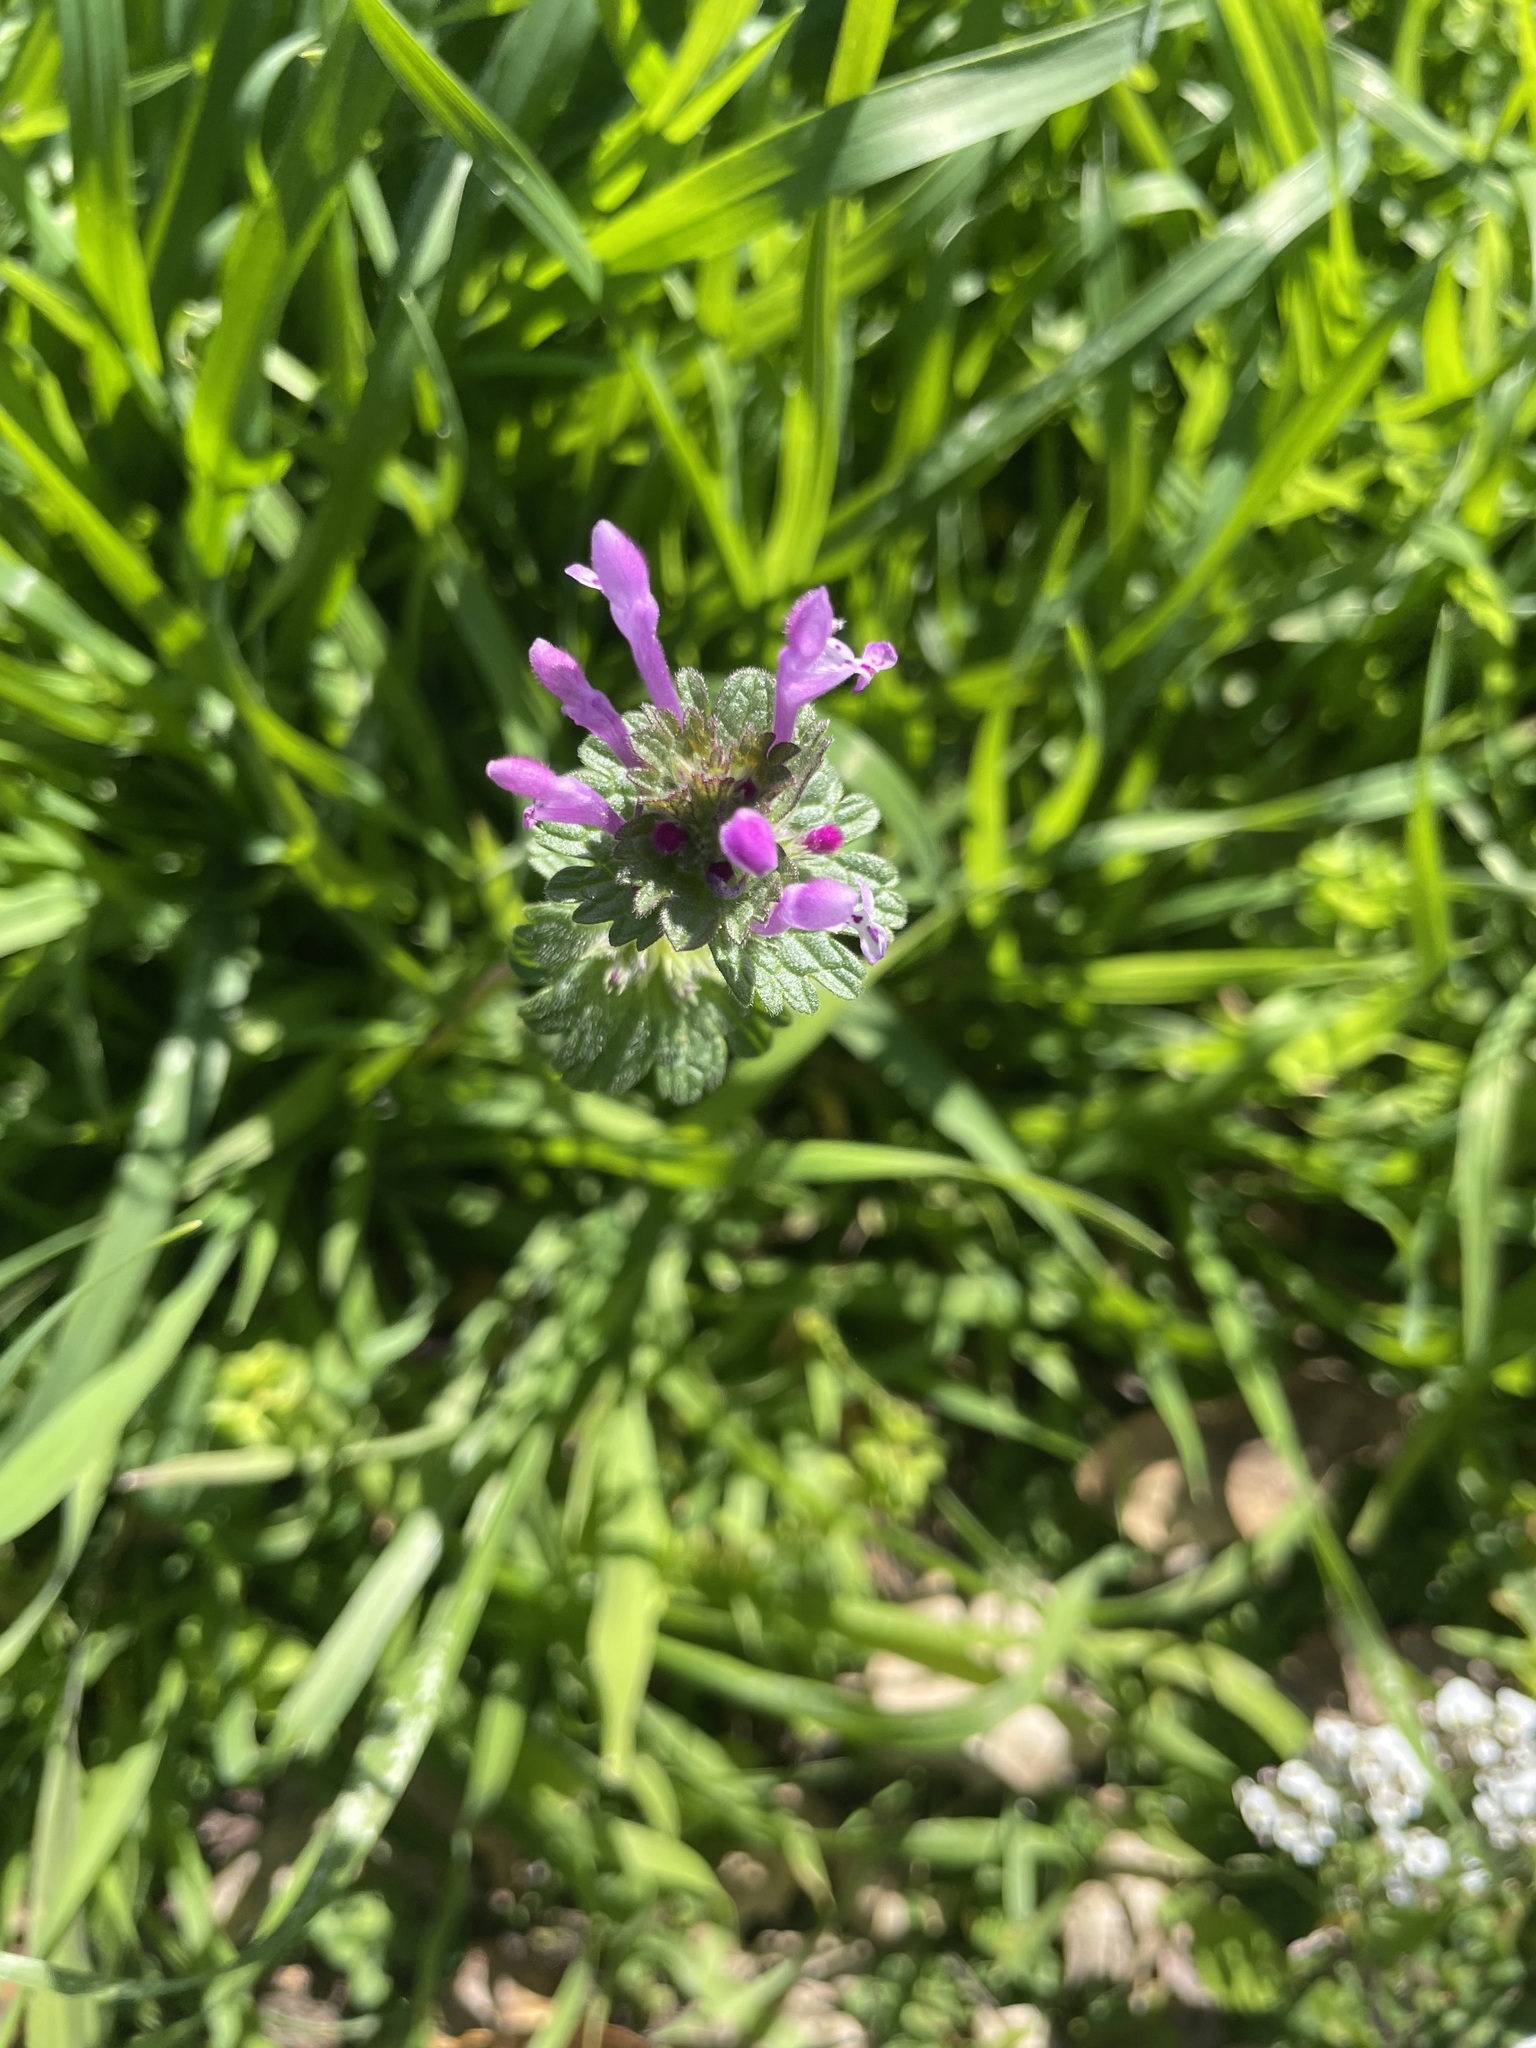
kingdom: Plantae
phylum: Tracheophyta
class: Magnoliopsida
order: Lamiales
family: Lamiaceae
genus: Lamium
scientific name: Lamium amplexicaule
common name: Henbit dead-nettle
